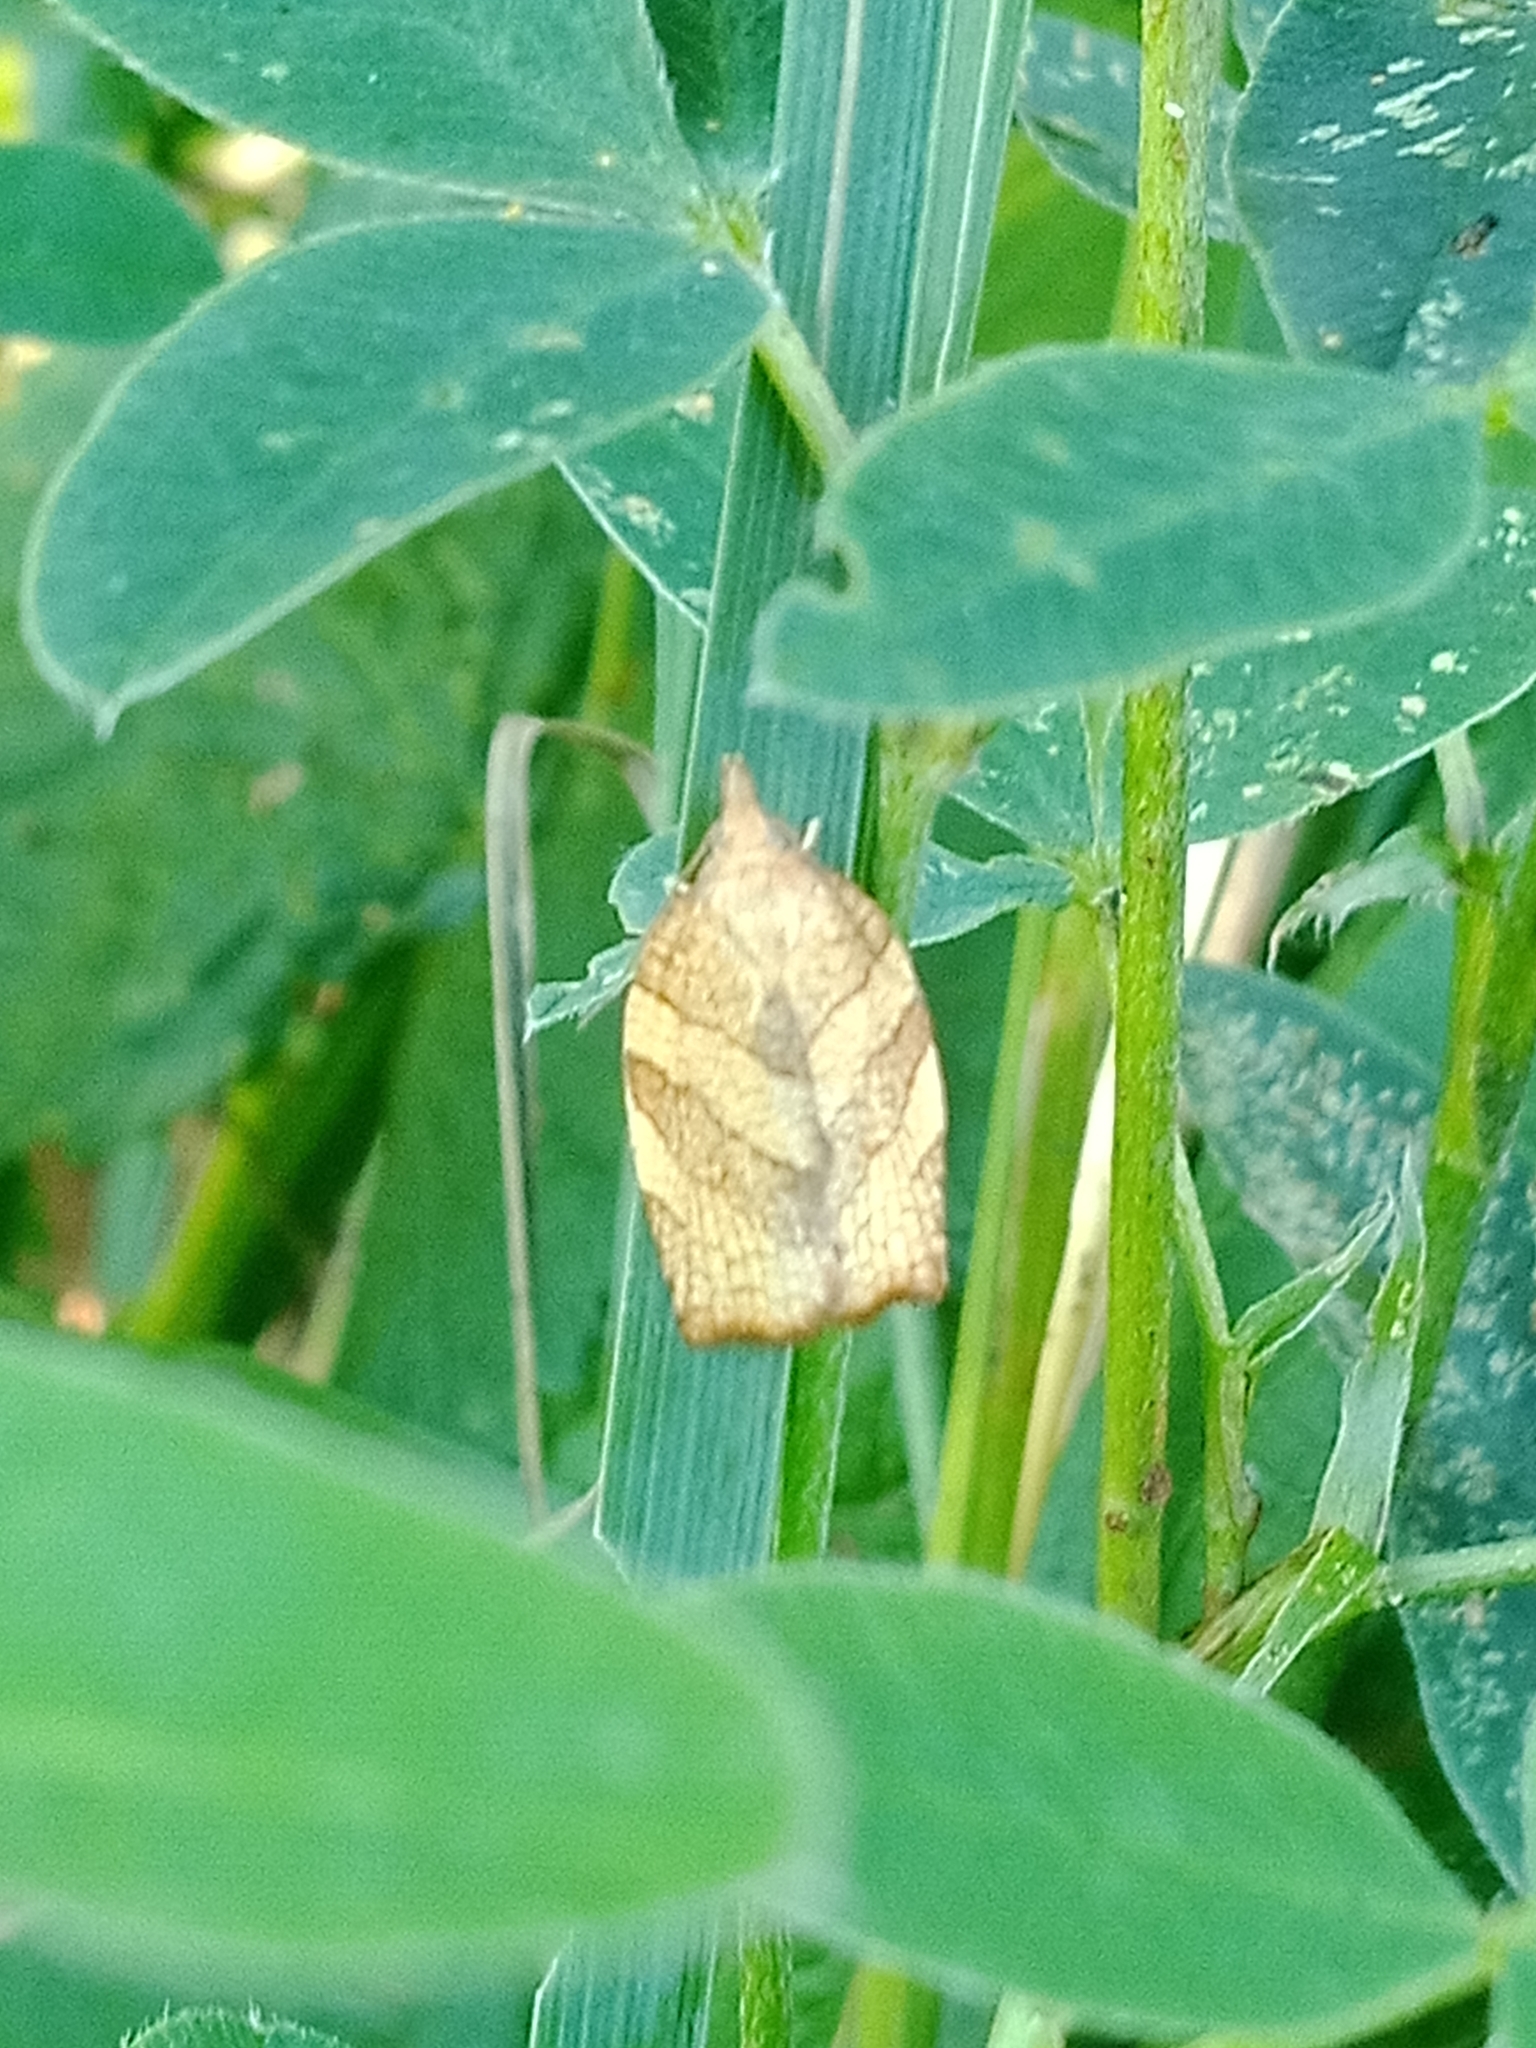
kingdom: Animalia
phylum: Arthropoda
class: Insecta
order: Lepidoptera
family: Tortricidae
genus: Pandemis
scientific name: Pandemis corylana
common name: Chequered fruit-tree tortrix
